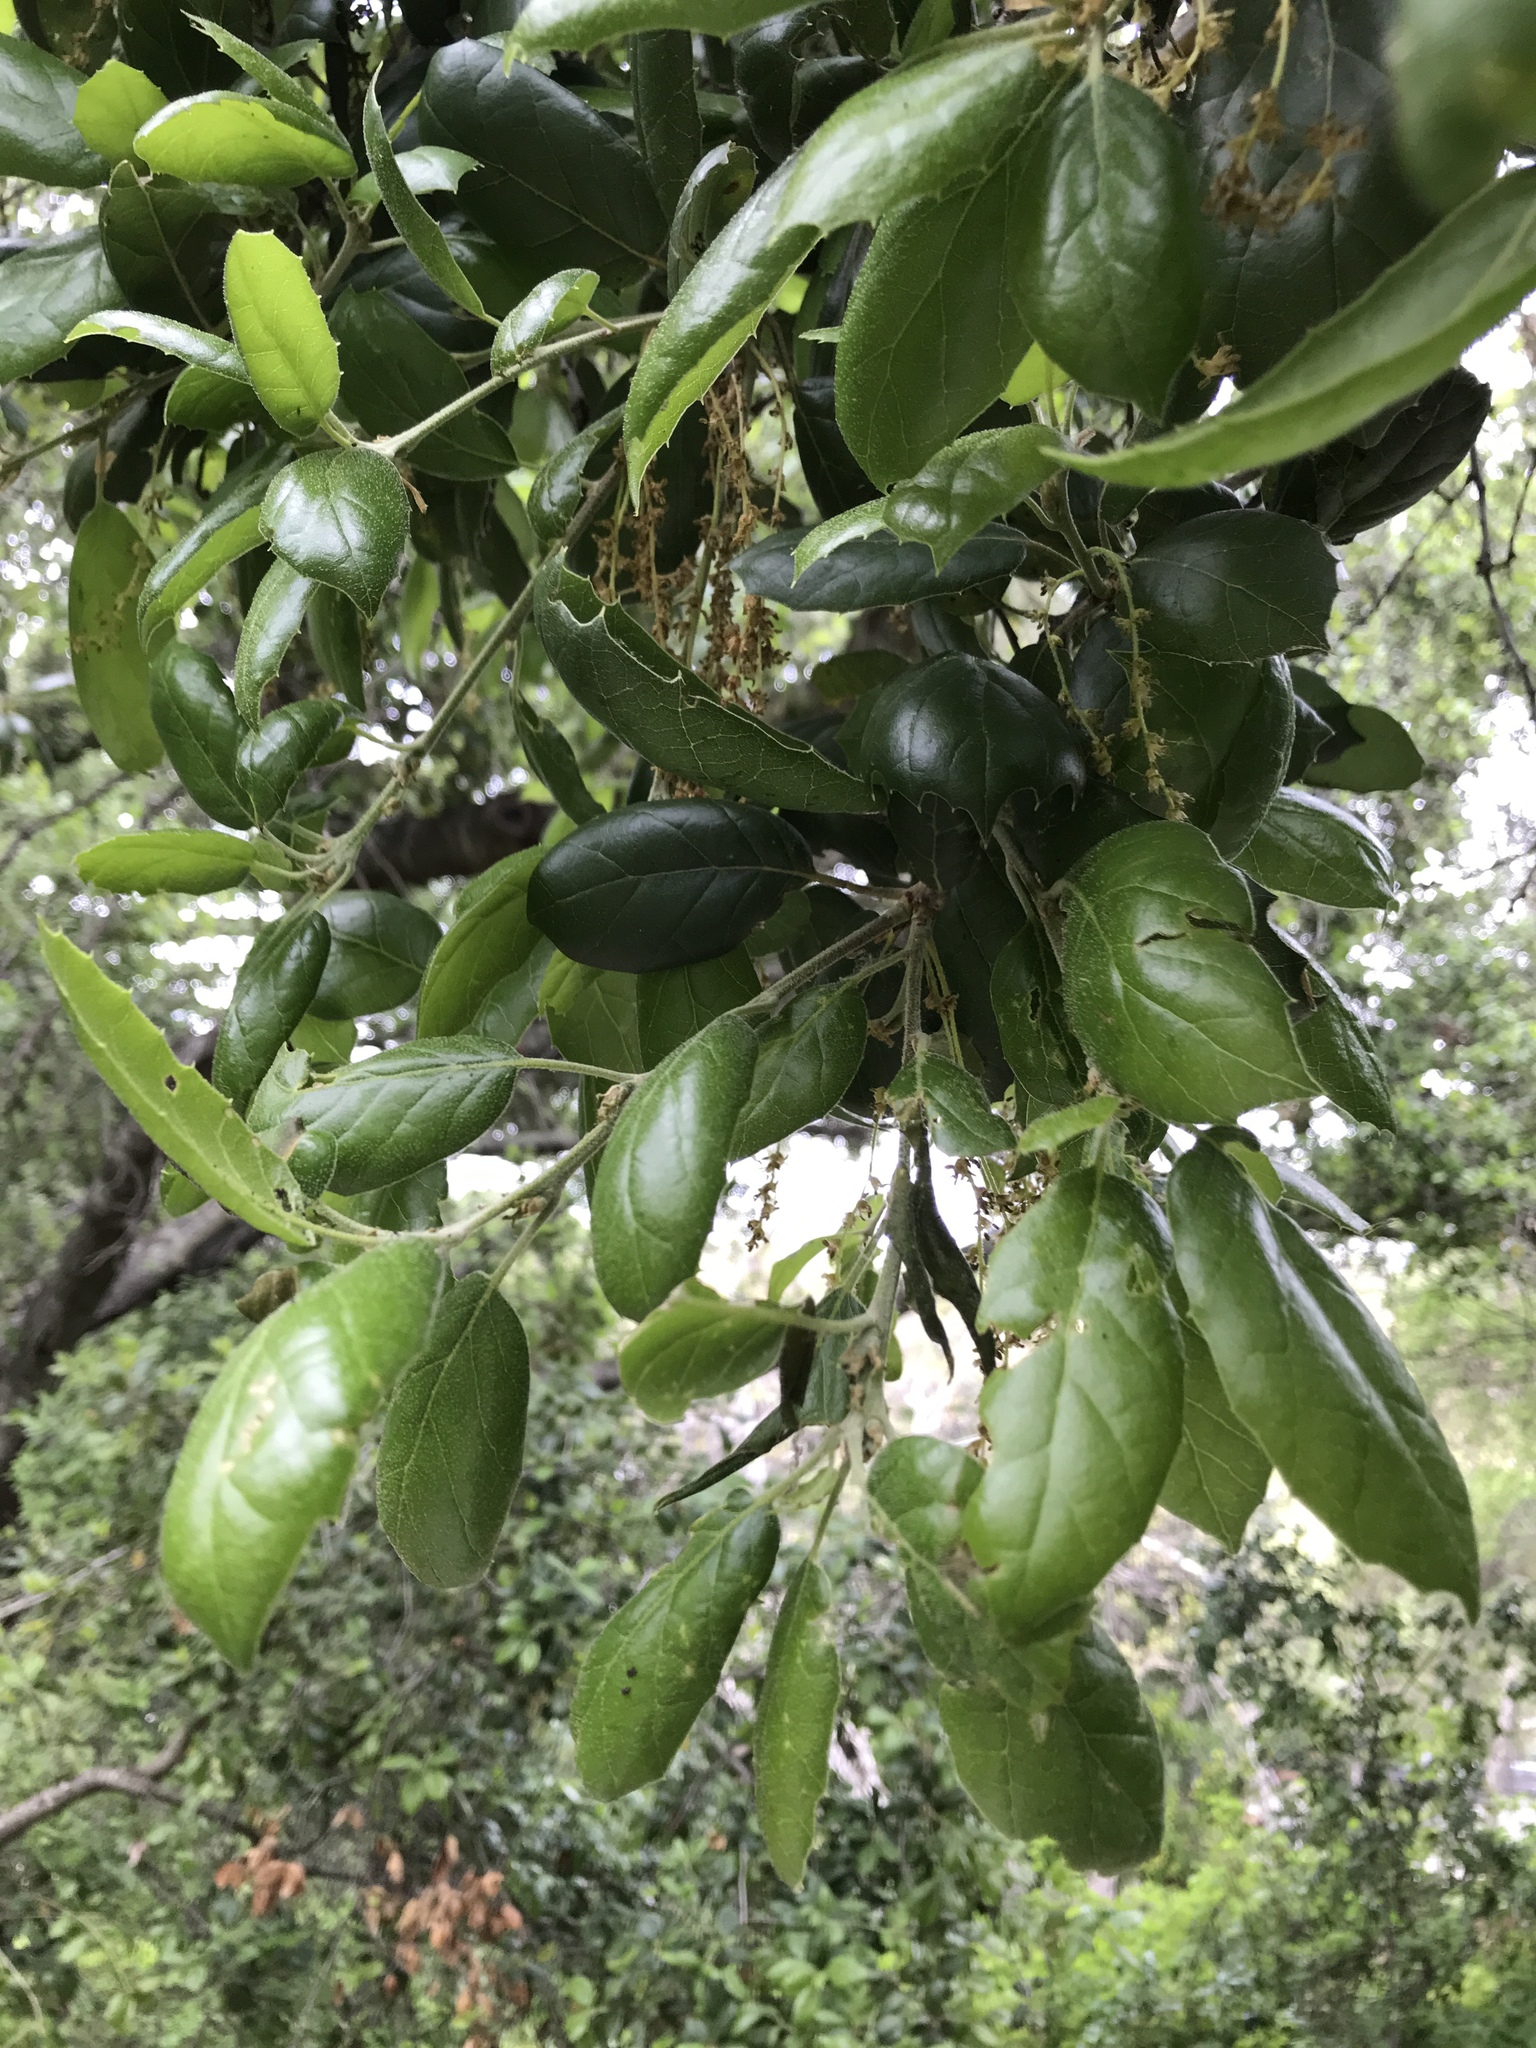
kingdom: Plantae
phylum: Tracheophyta
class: Magnoliopsida
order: Fagales
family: Fagaceae
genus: Quercus
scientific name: Quercus agrifolia
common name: California live oak
